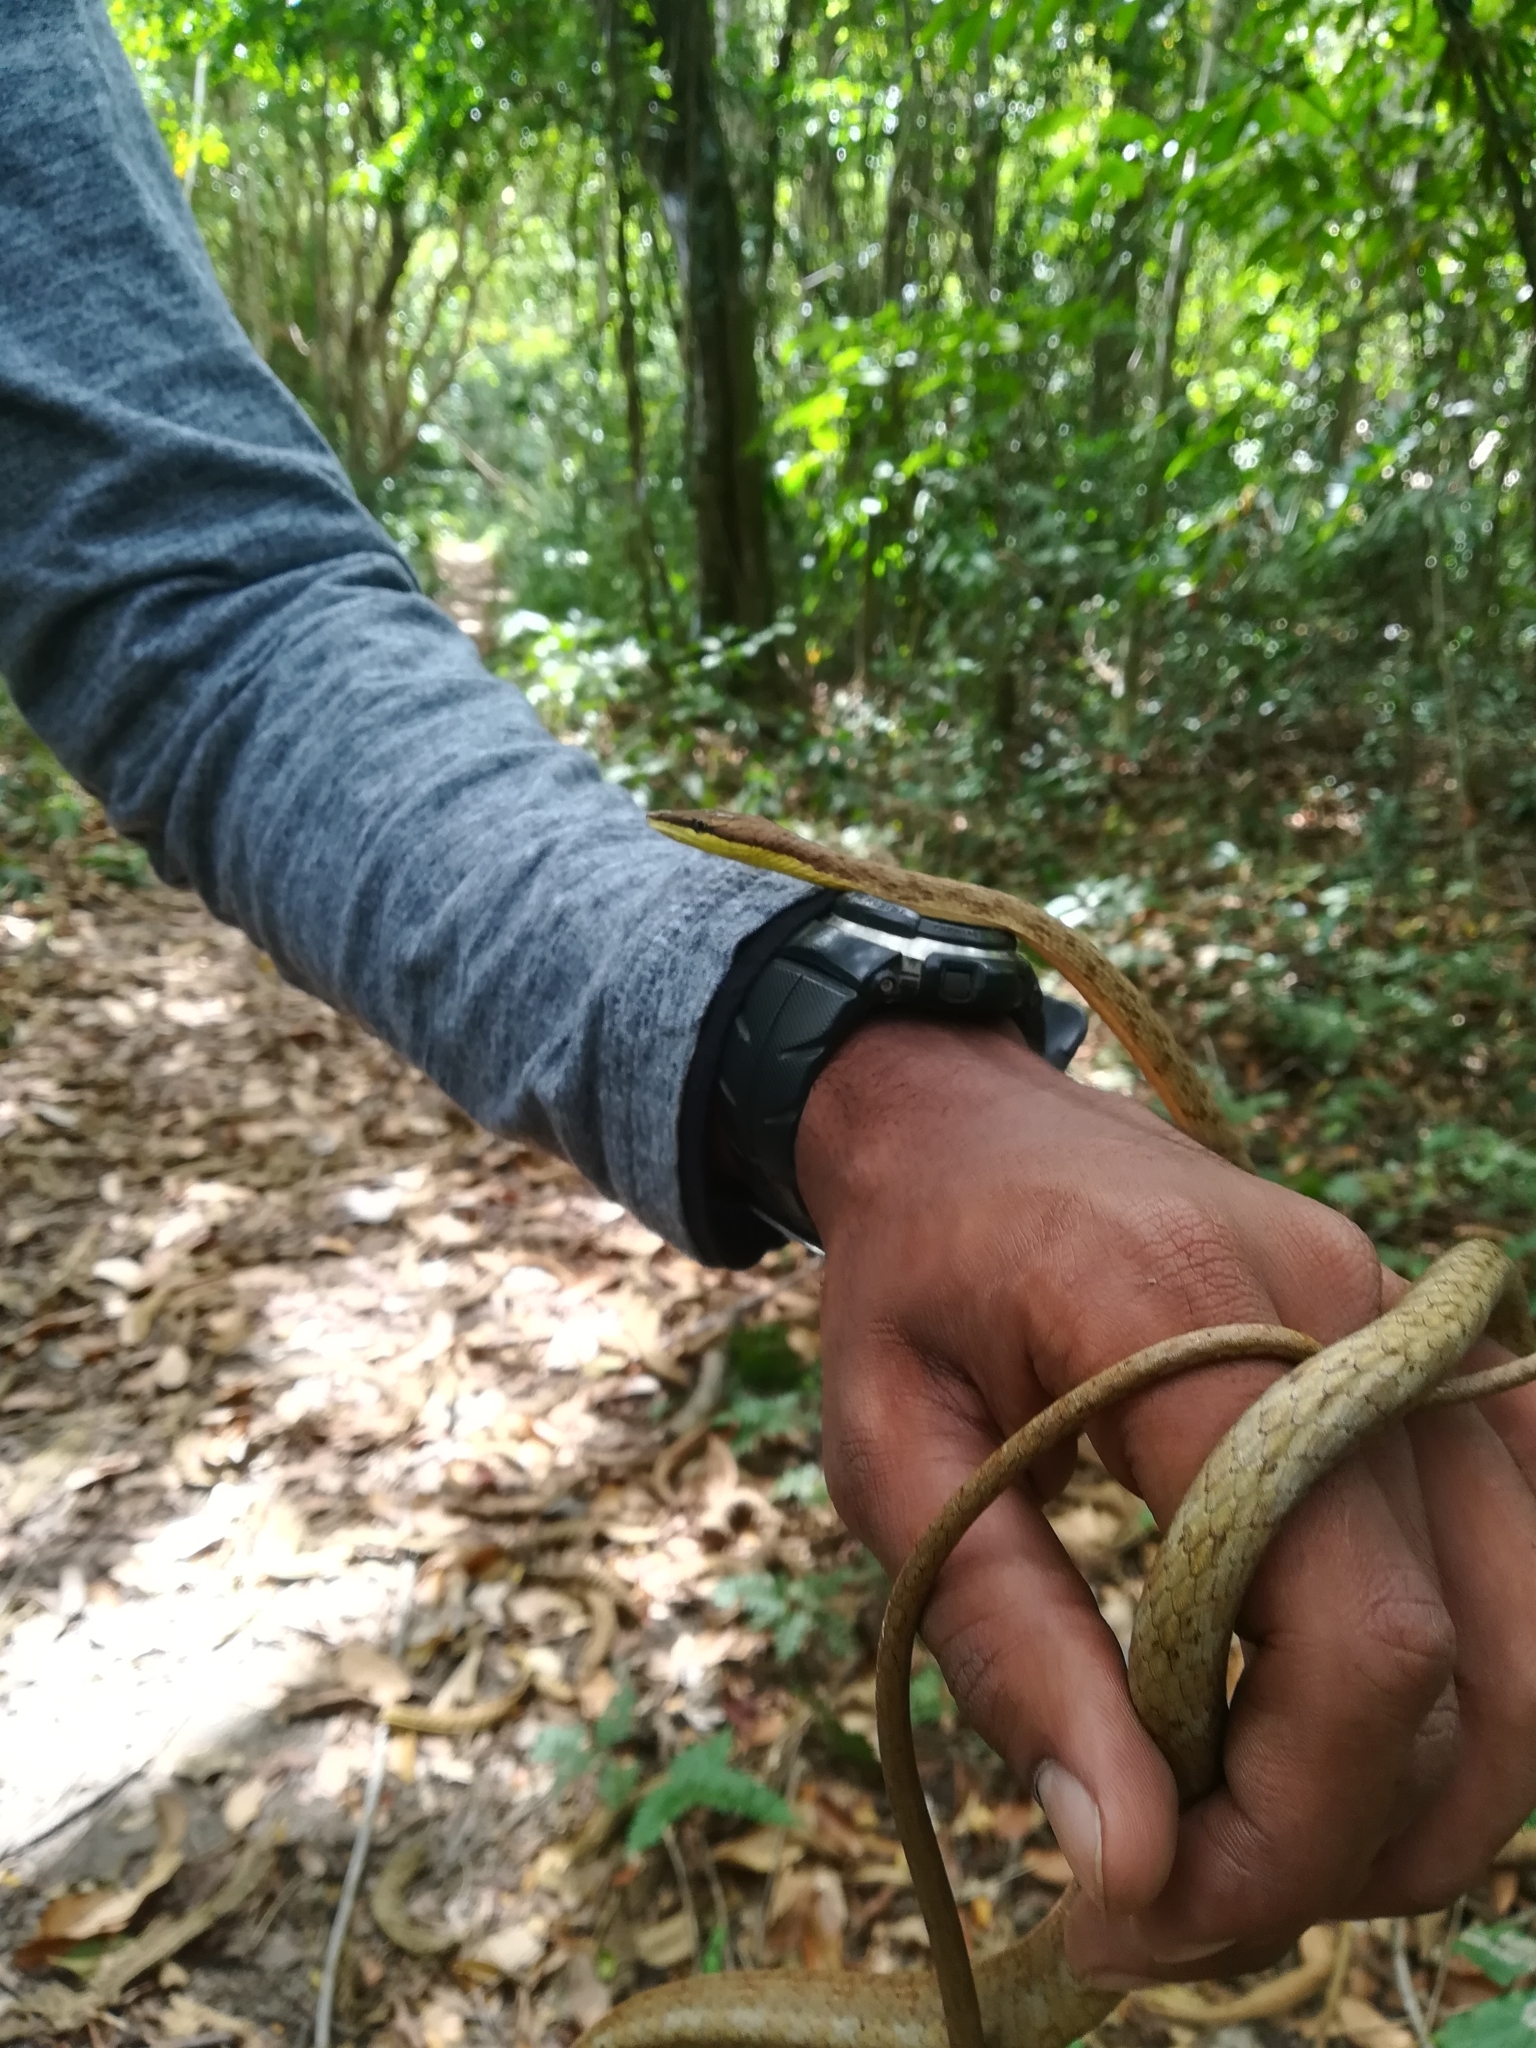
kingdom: Animalia
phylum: Chordata
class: Squamata
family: Colubridae
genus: Oxybelis
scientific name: Oxybelis rutherfordi
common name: Rutherford’s vine snake
